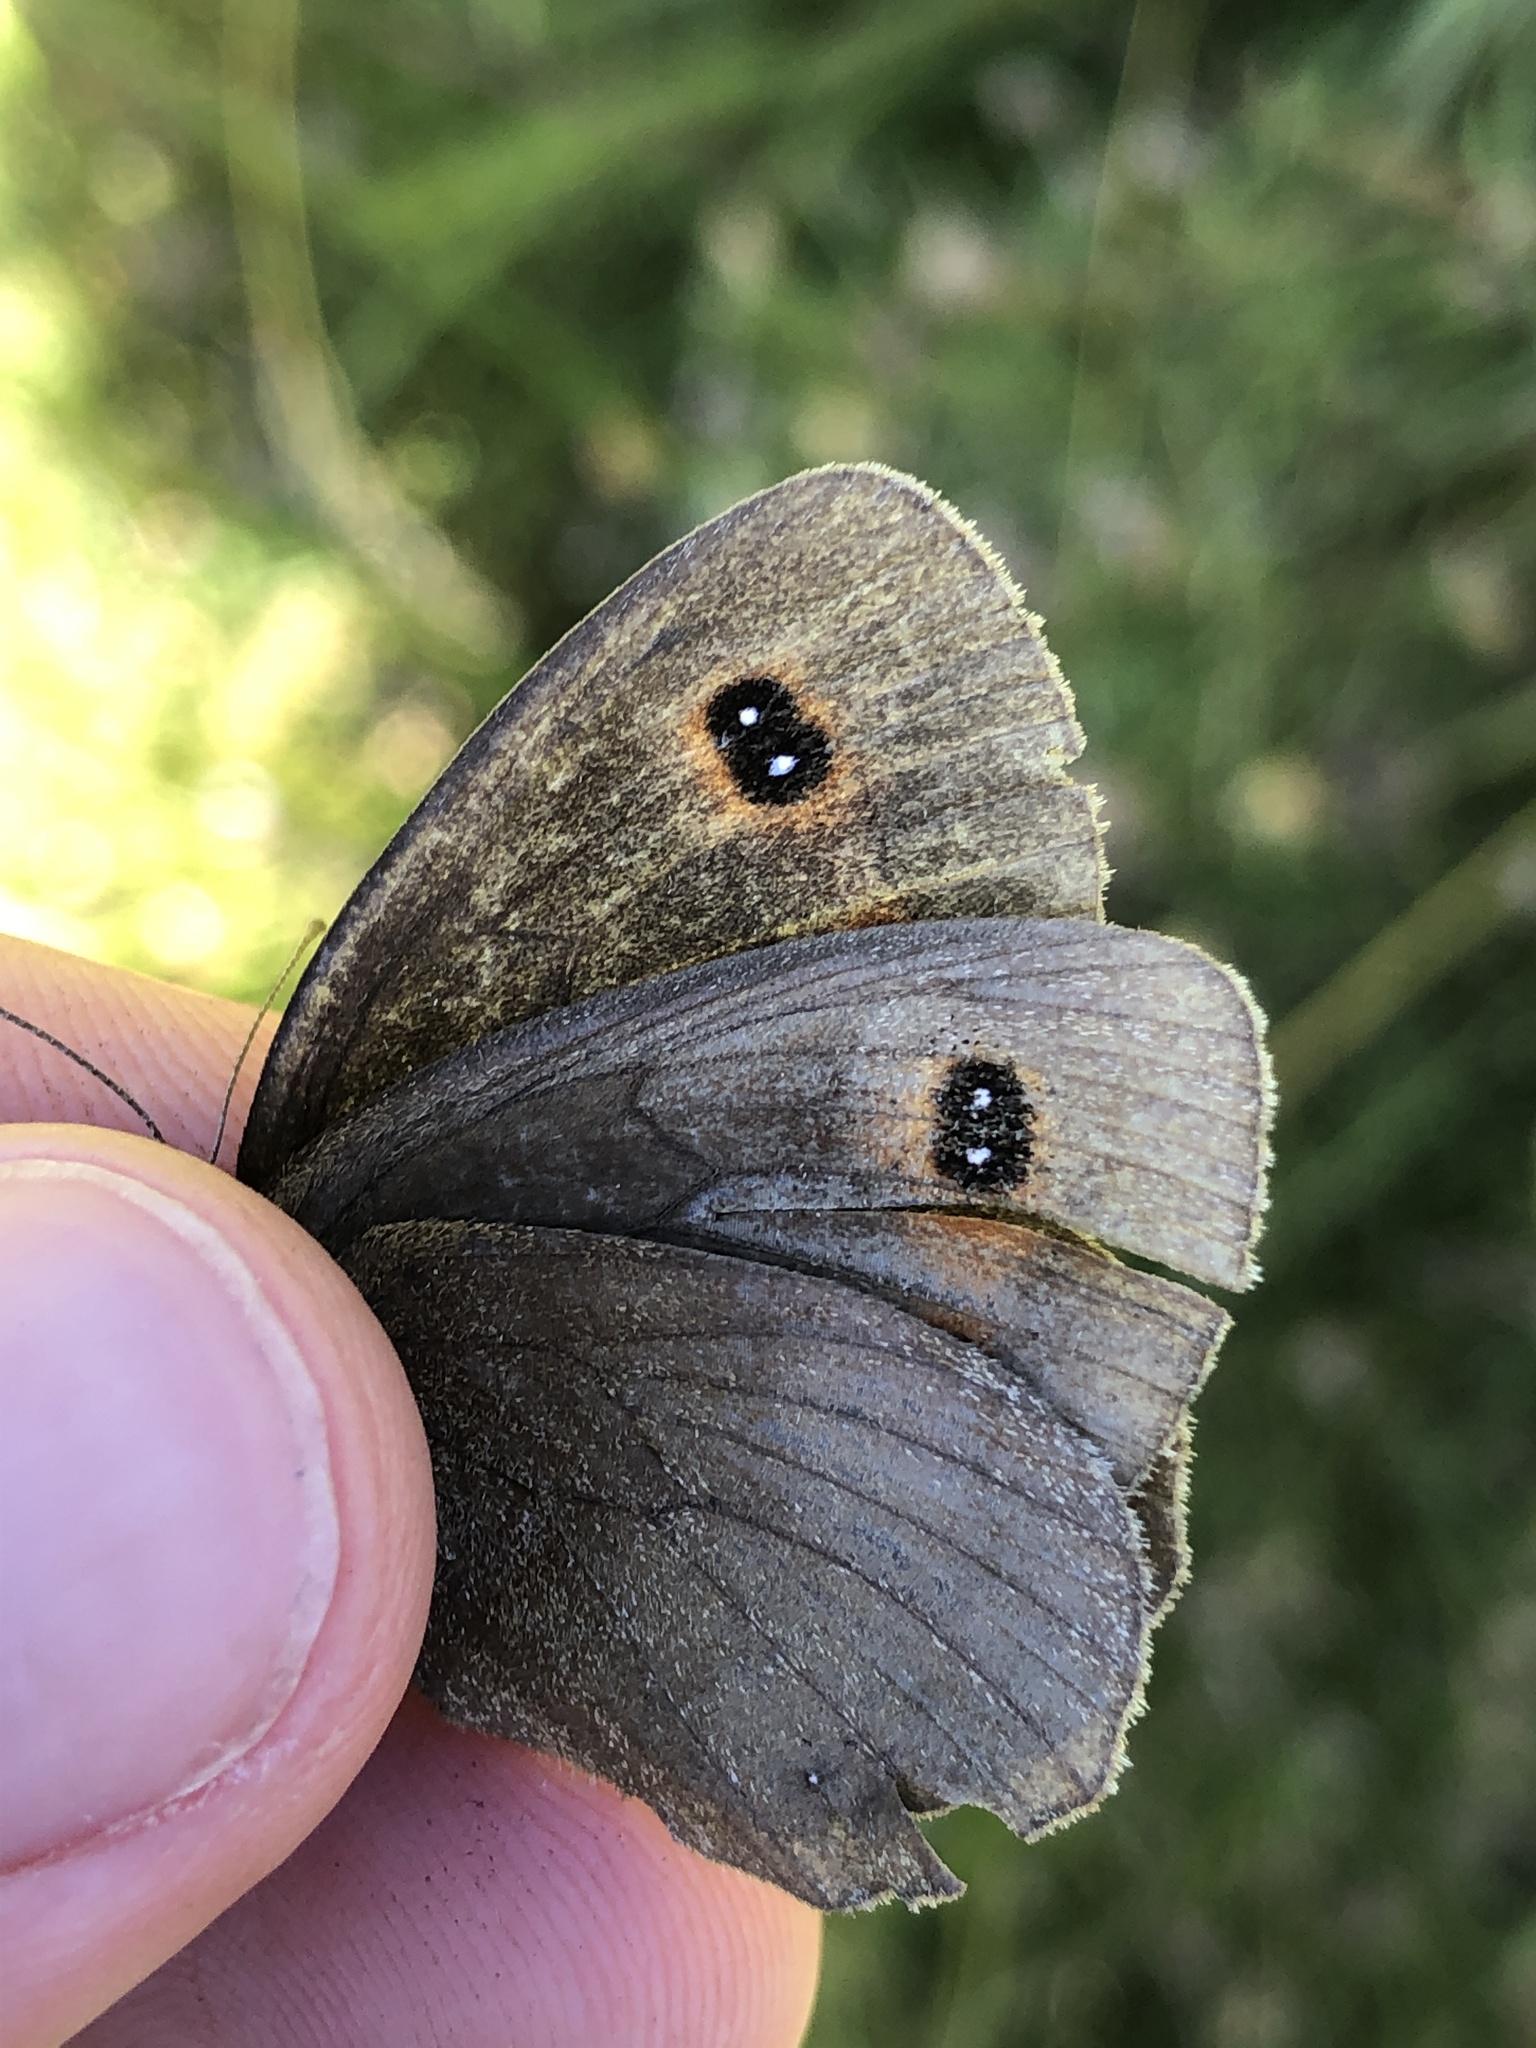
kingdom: Animalia
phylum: Arthropoda
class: Insecta
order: Lepidoptera
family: Nymphalidae
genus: Erebia
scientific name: Erebia aethiops
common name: Scotch argus
